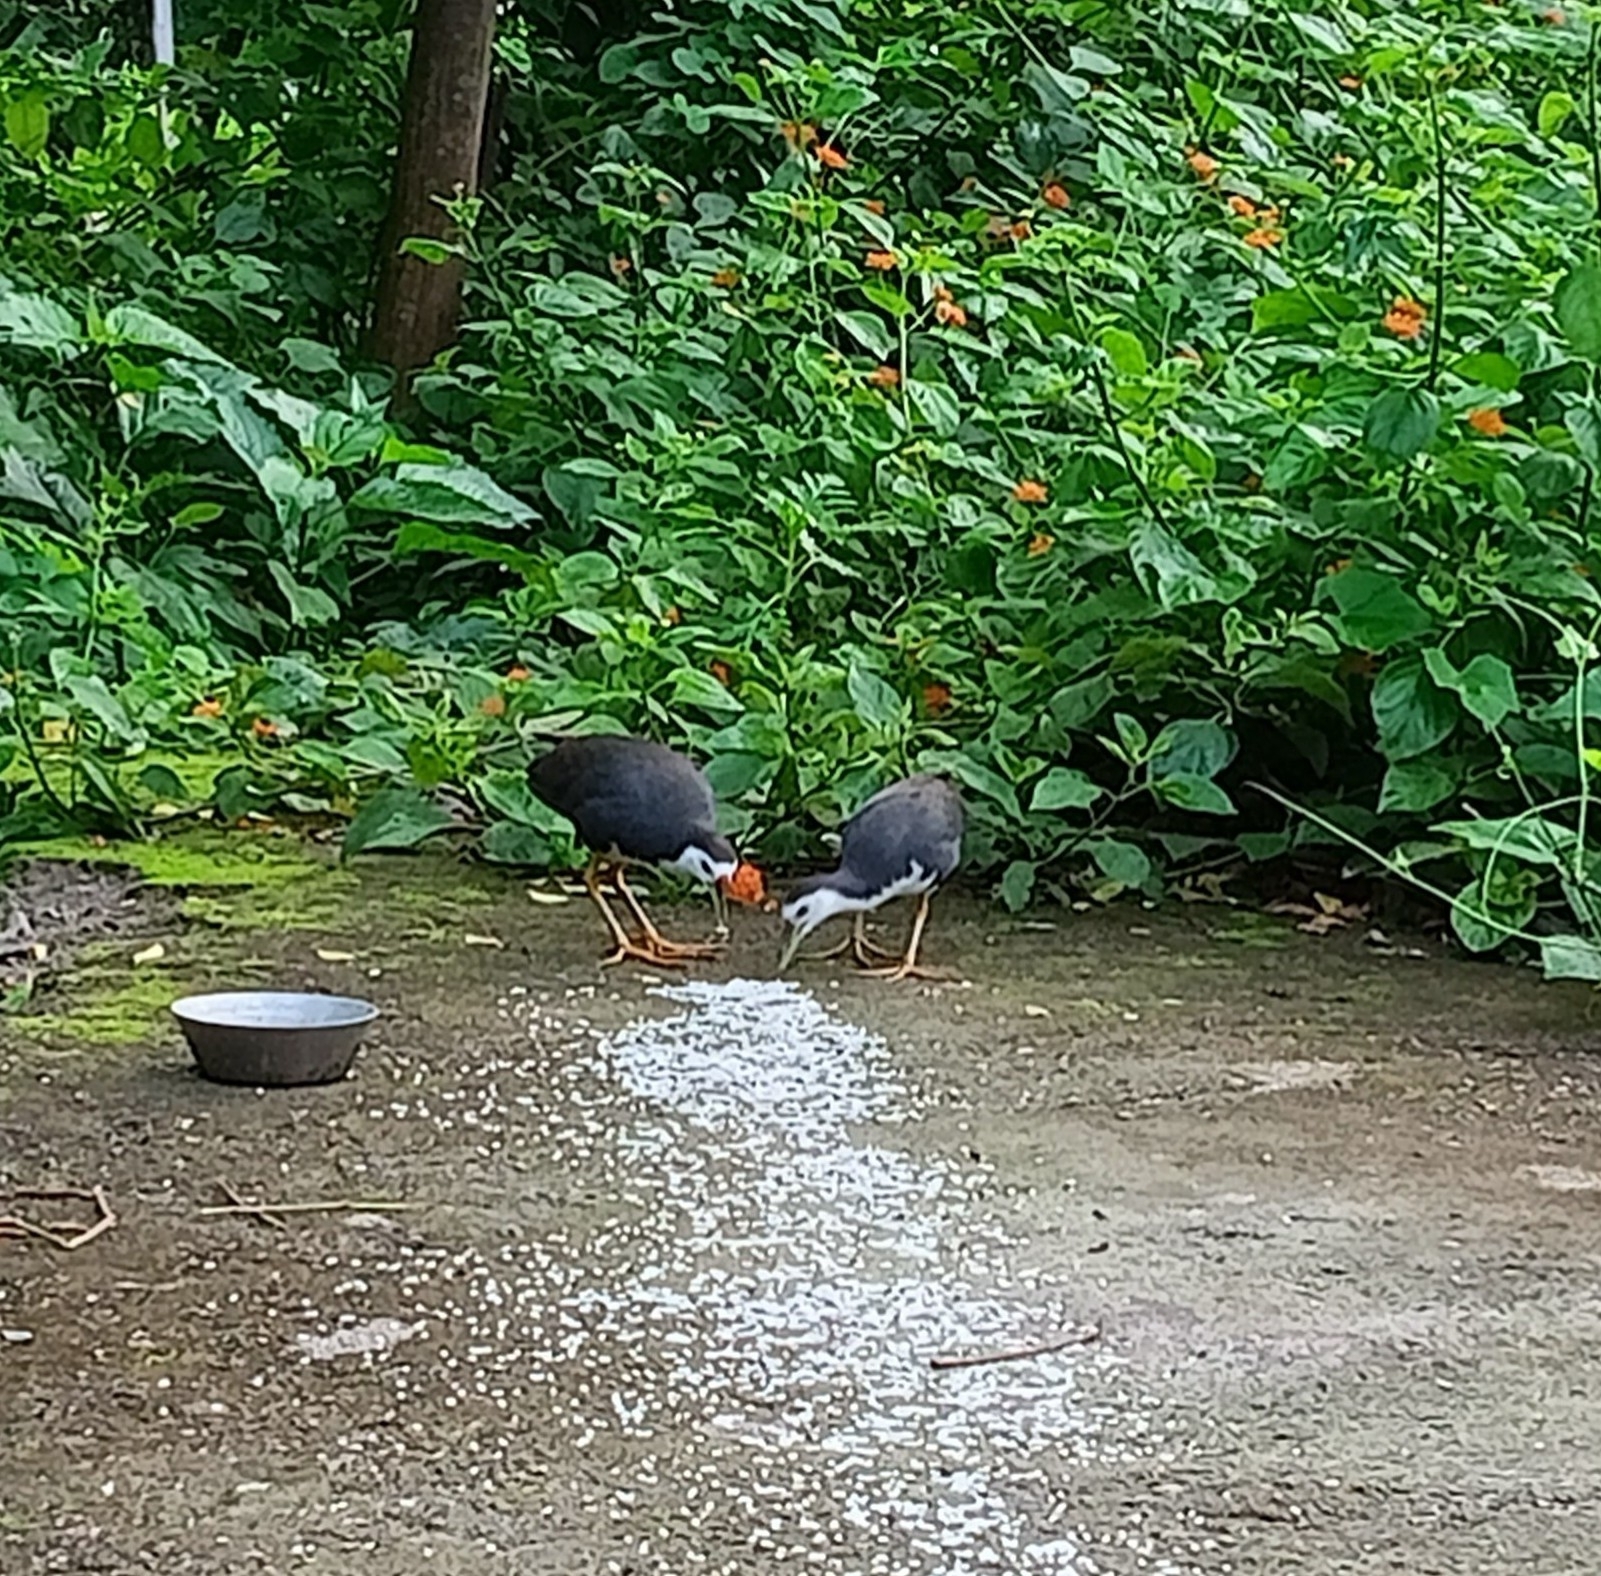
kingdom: Animalia
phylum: Chordata
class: Aves
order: Gruiformes
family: Rallidae
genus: Amaurornis
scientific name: Amaurornis phoenicurus
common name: White-breasted waterhen
